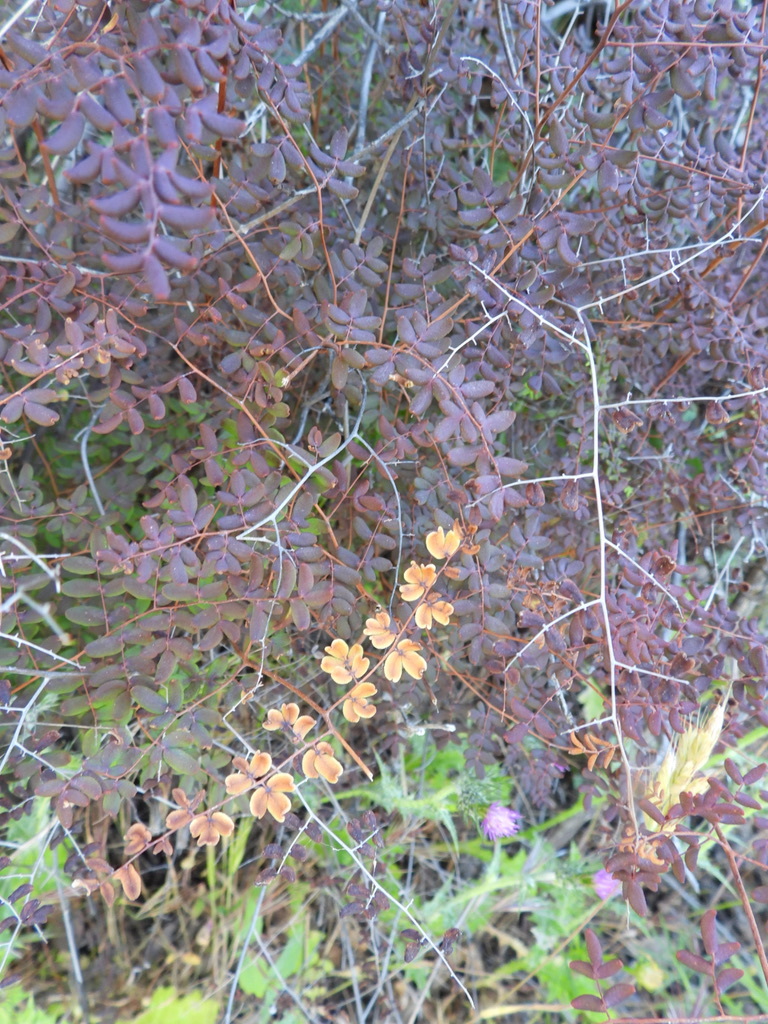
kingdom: Plantae
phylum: Tracheophyta
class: Polypodiopsida
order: Polypodiales
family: Pteridaceae
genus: Pellaea
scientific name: Pellaea andromedifolia
